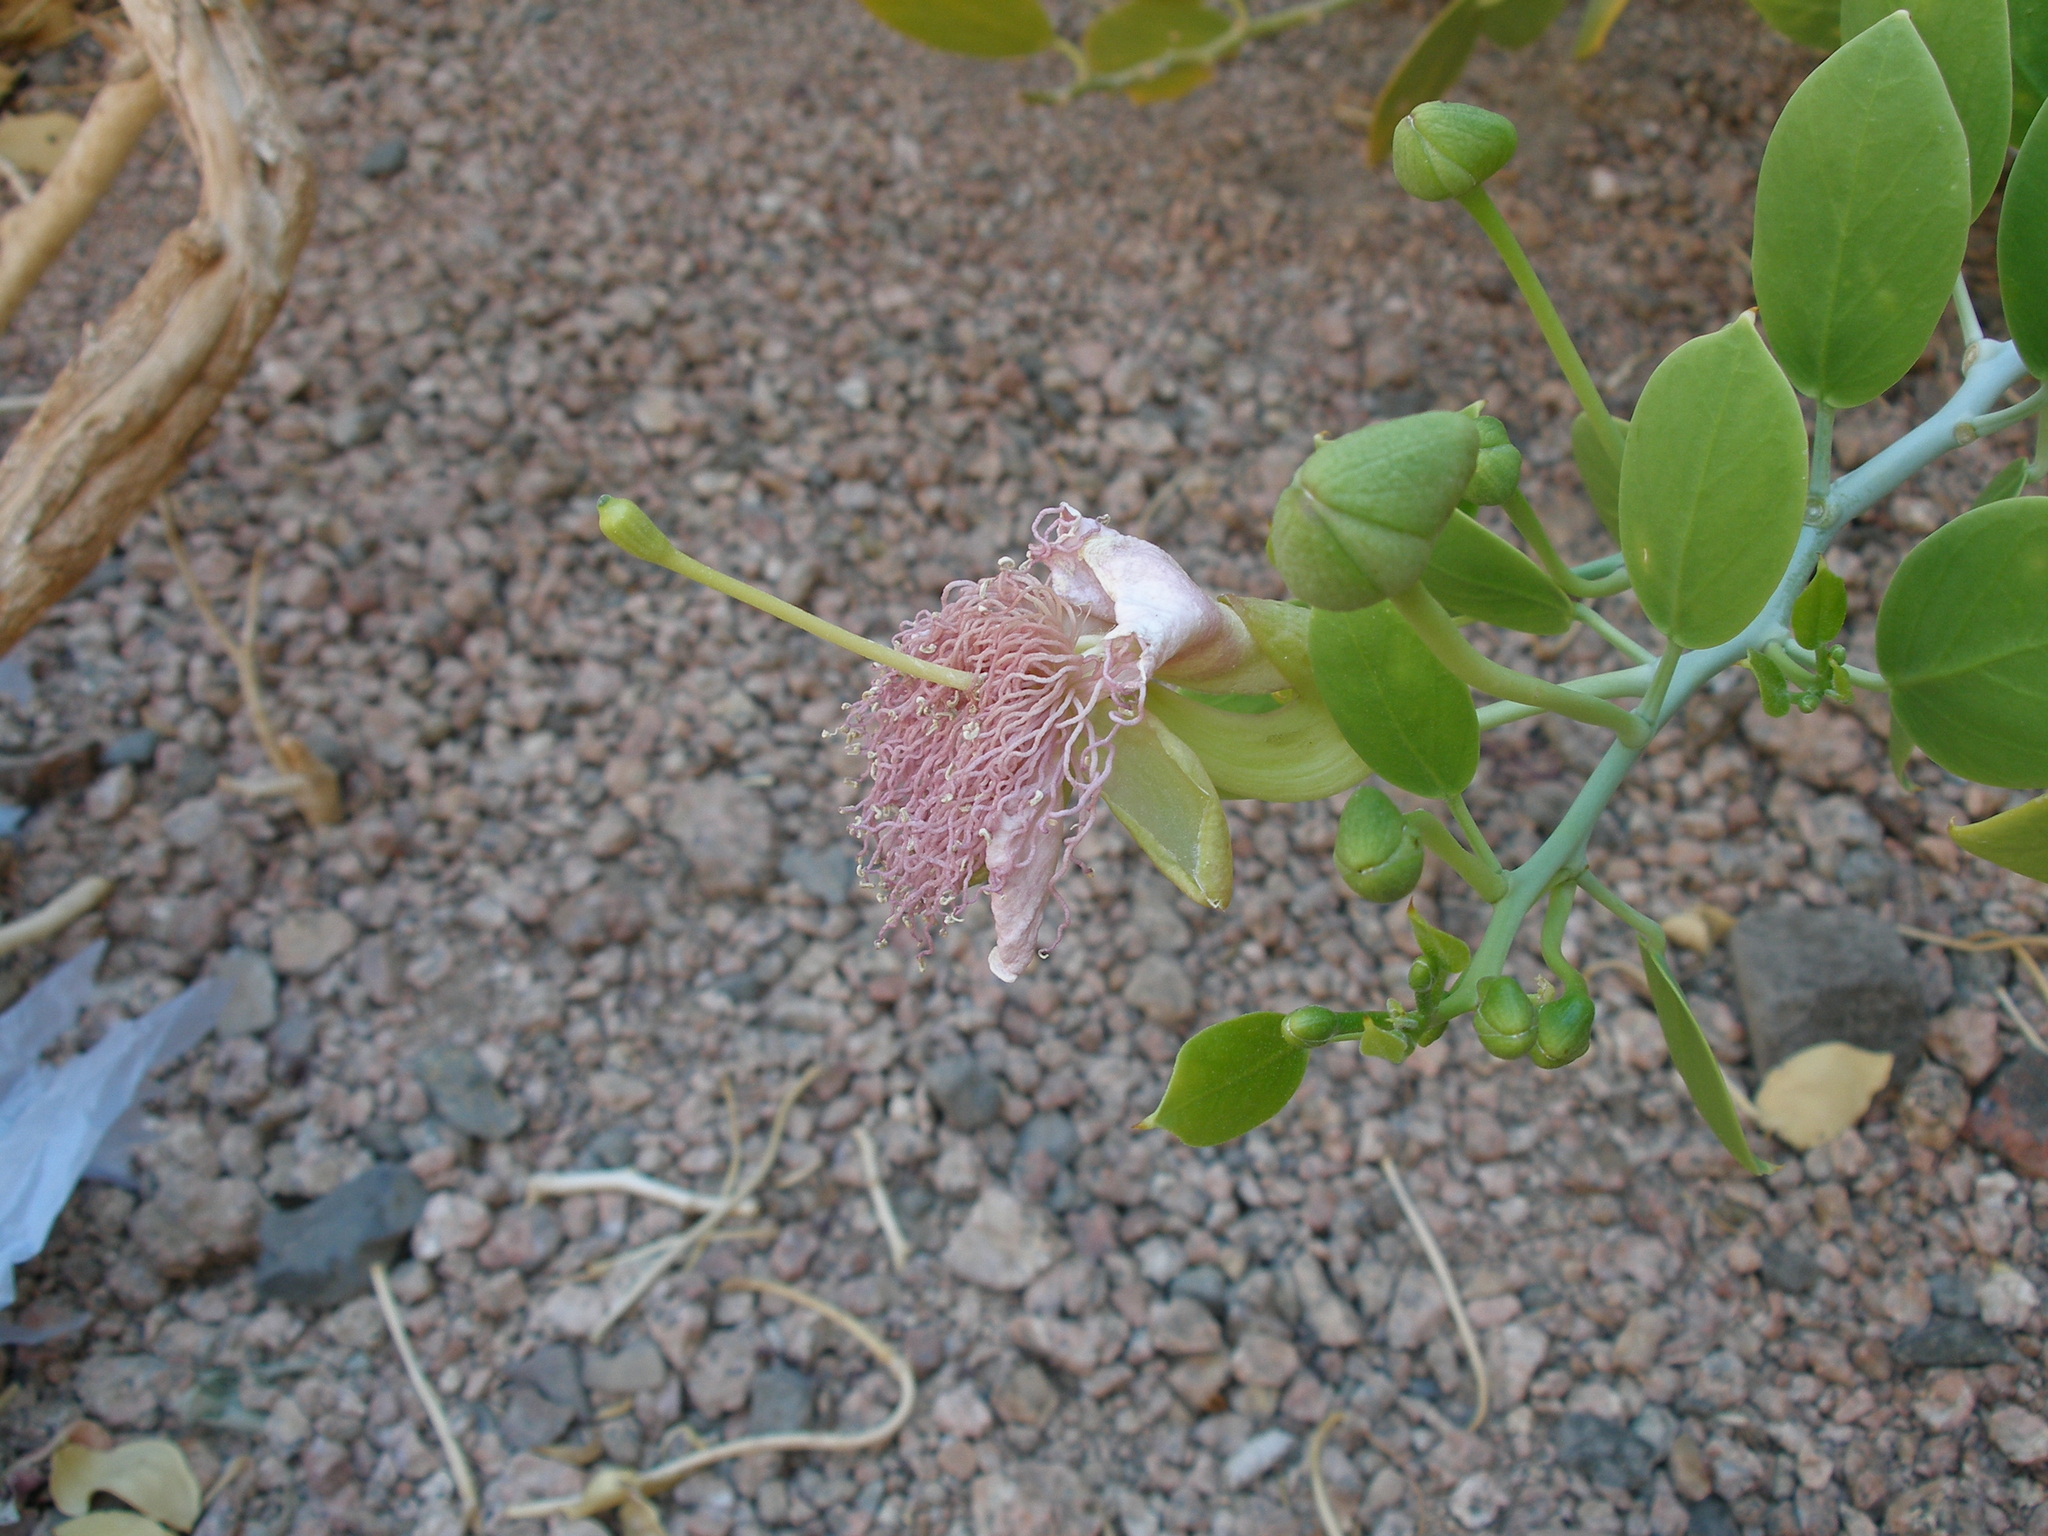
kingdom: Plantae
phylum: Tracheophyta
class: Magnoliopsida
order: Brassicales
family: Capparaceae
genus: Capparis
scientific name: Capparis cartilaginea
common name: Caper
